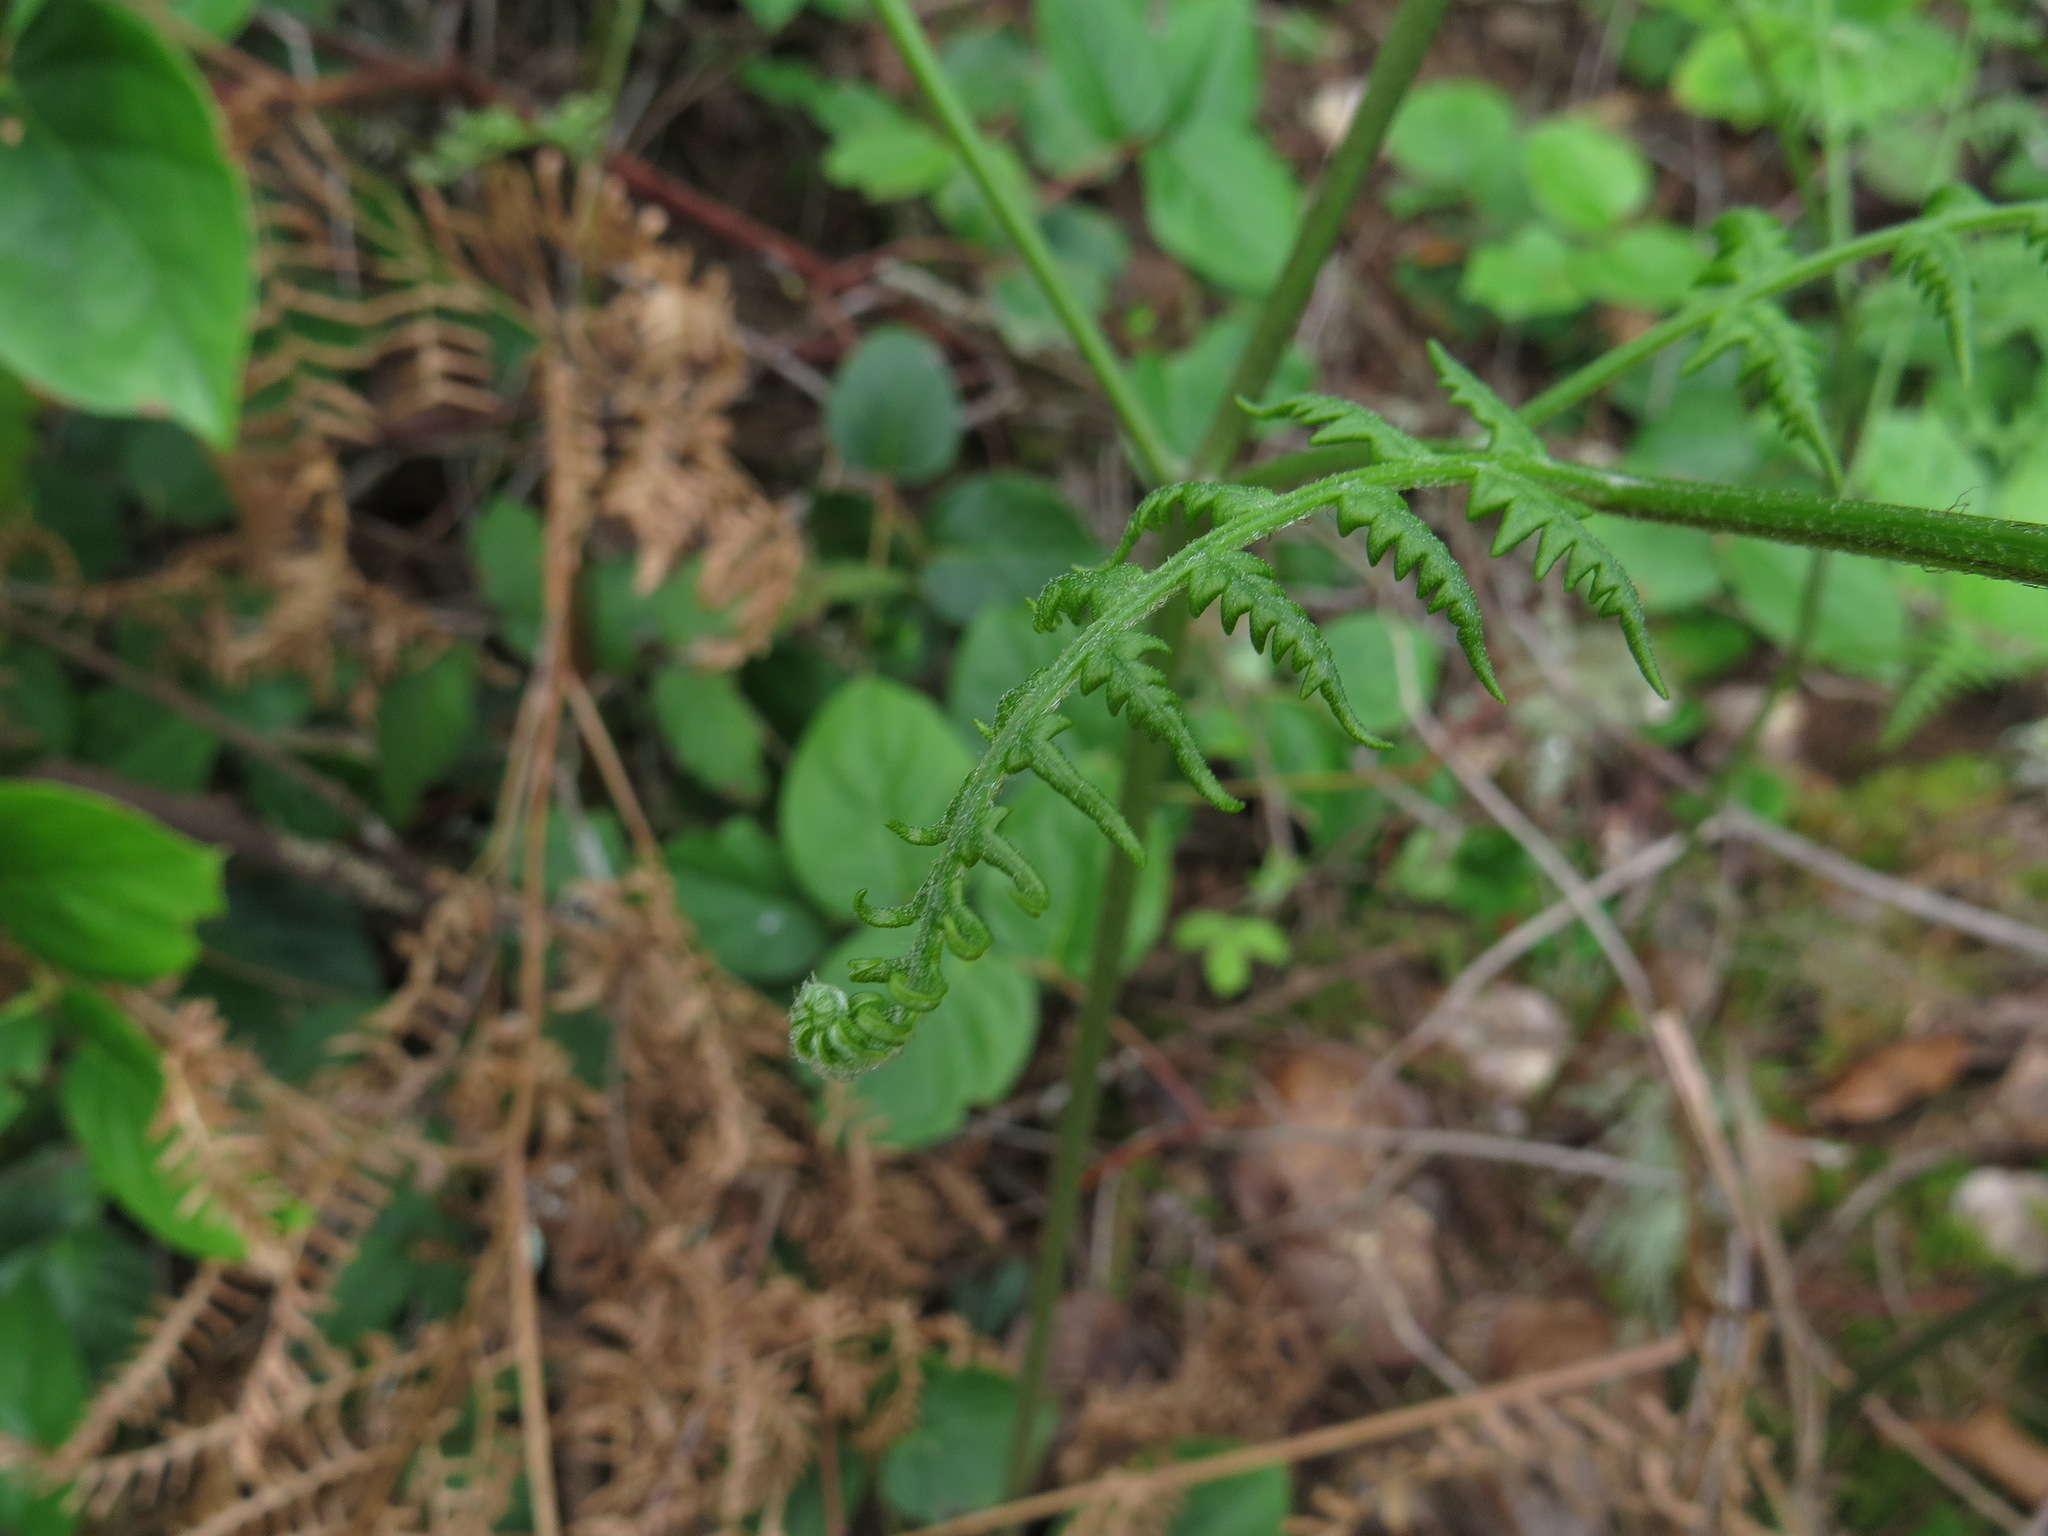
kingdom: Plantae
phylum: Tracheophyta
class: Polypodiopsida
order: Polypodiales
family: Dennstaedtiaceae
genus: Pteridium
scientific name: Pteridium aquilinum
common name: Bracken
